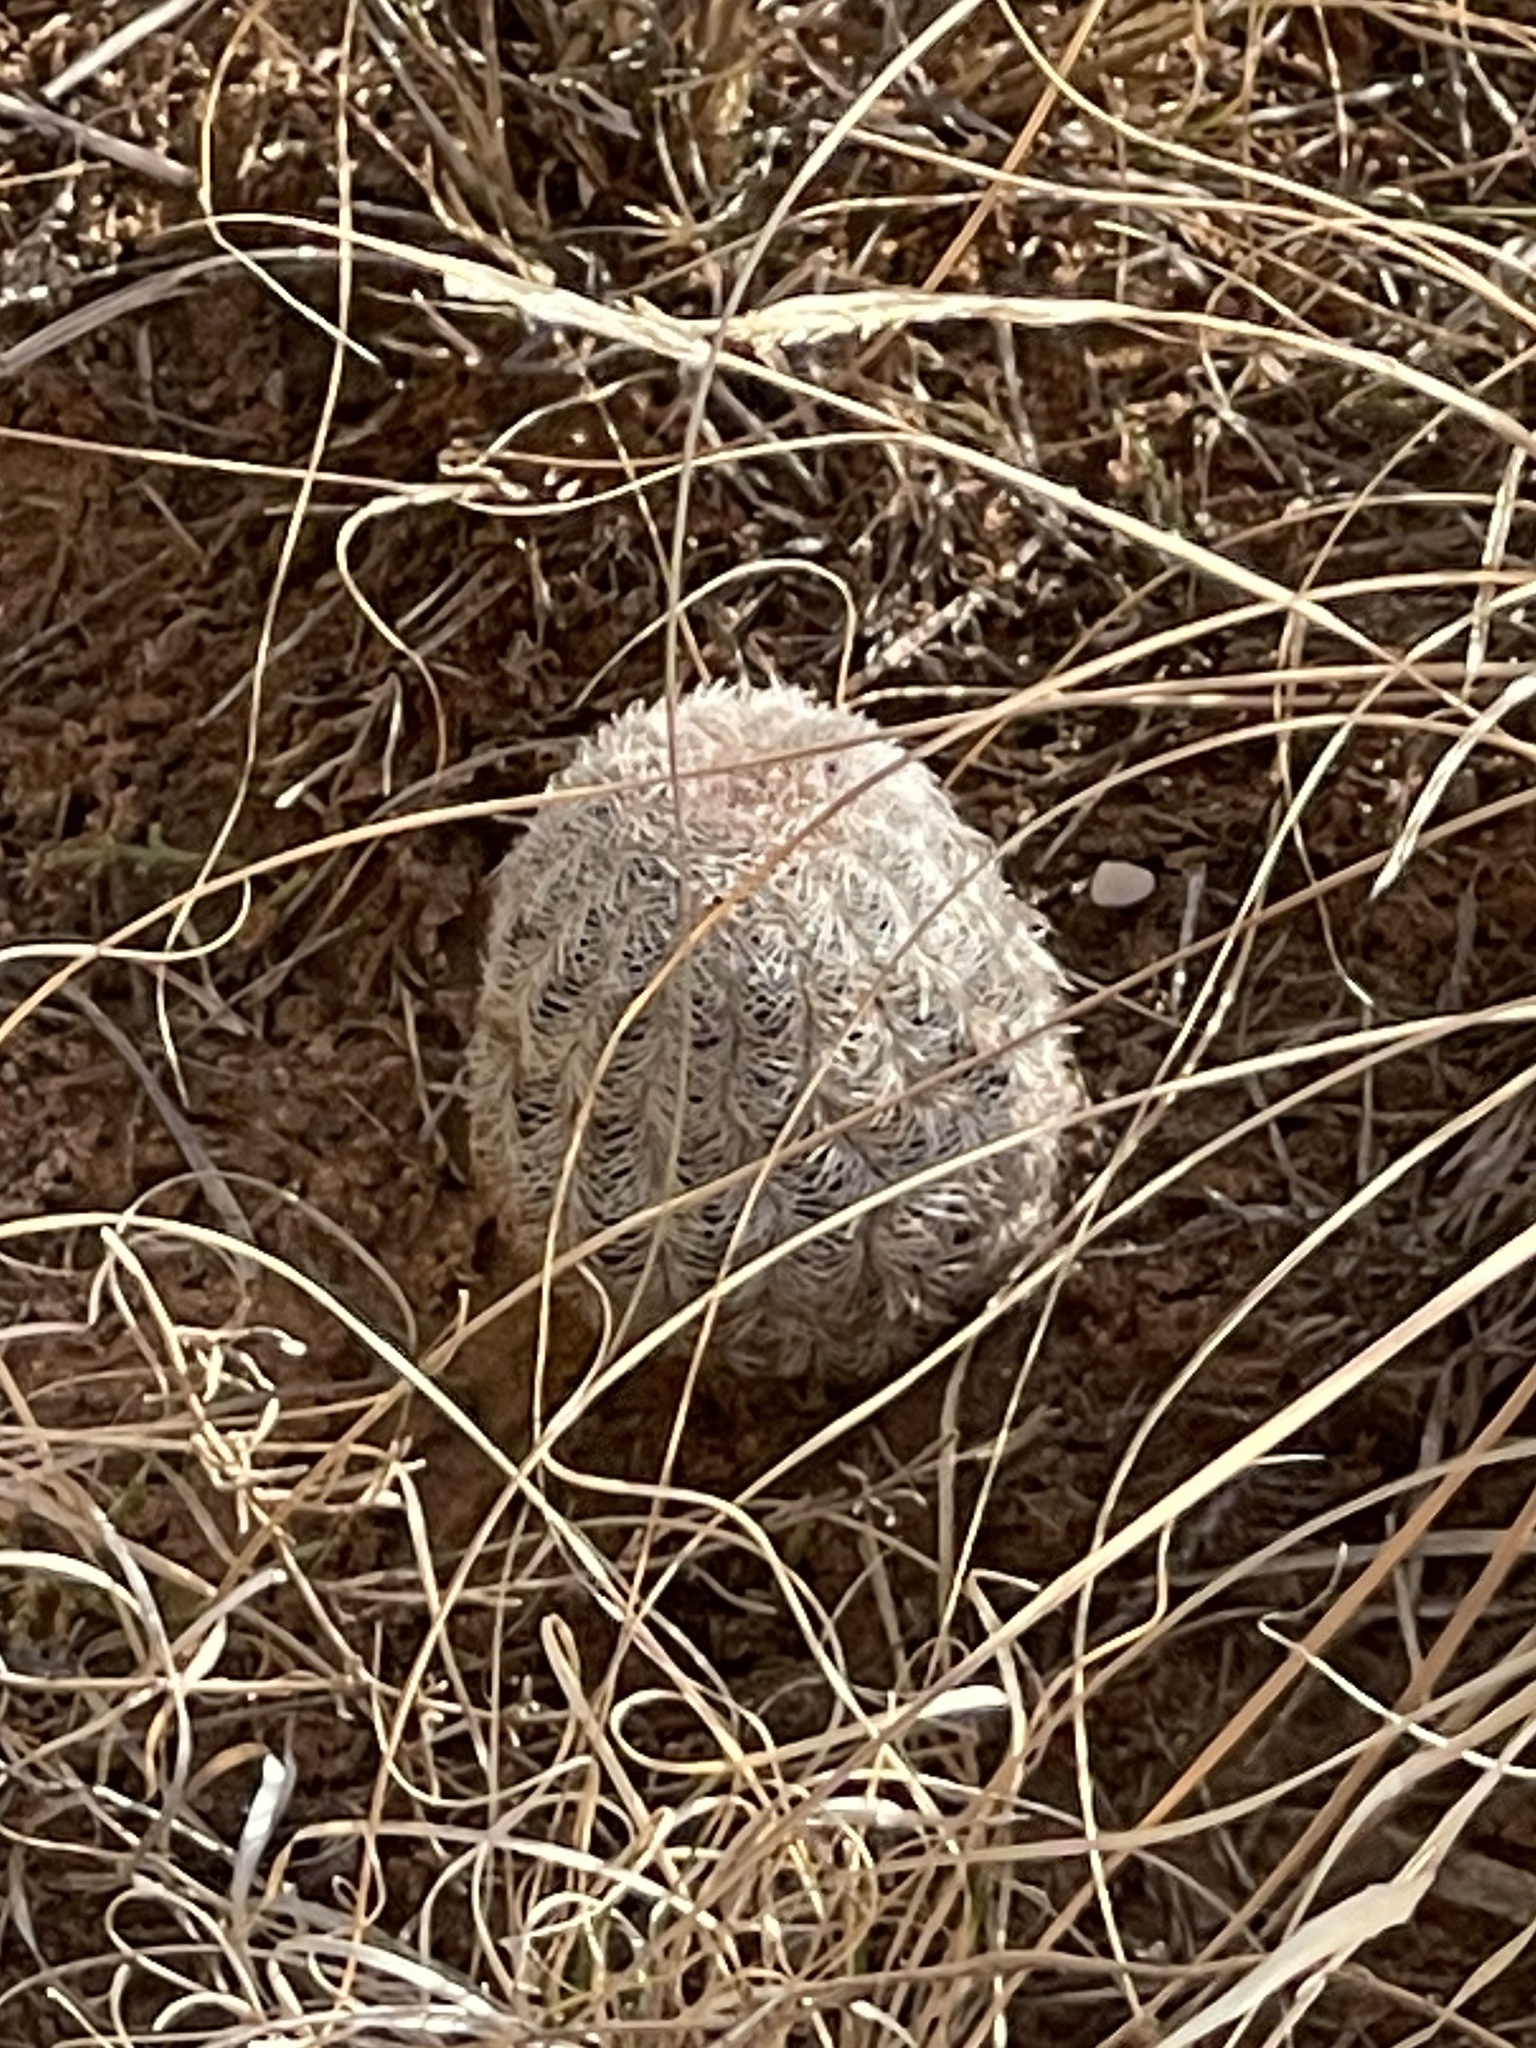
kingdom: Plantae
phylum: Tracheophyta
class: Magnoliopsida
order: Caryophyllales
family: Cactaceae
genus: Echinocereus
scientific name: Echinocereus reichenbachii
